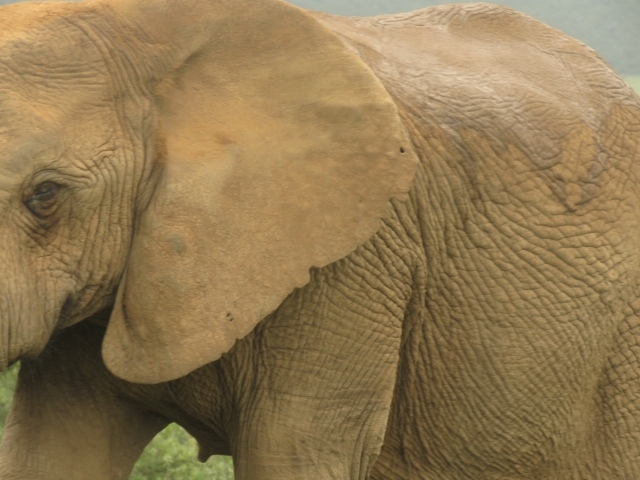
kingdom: Animalia
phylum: Chordata
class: Mammalia
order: Proboscidea
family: Elephantidae
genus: Loxodonta
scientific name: Loxodonta africana
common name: African elephant
